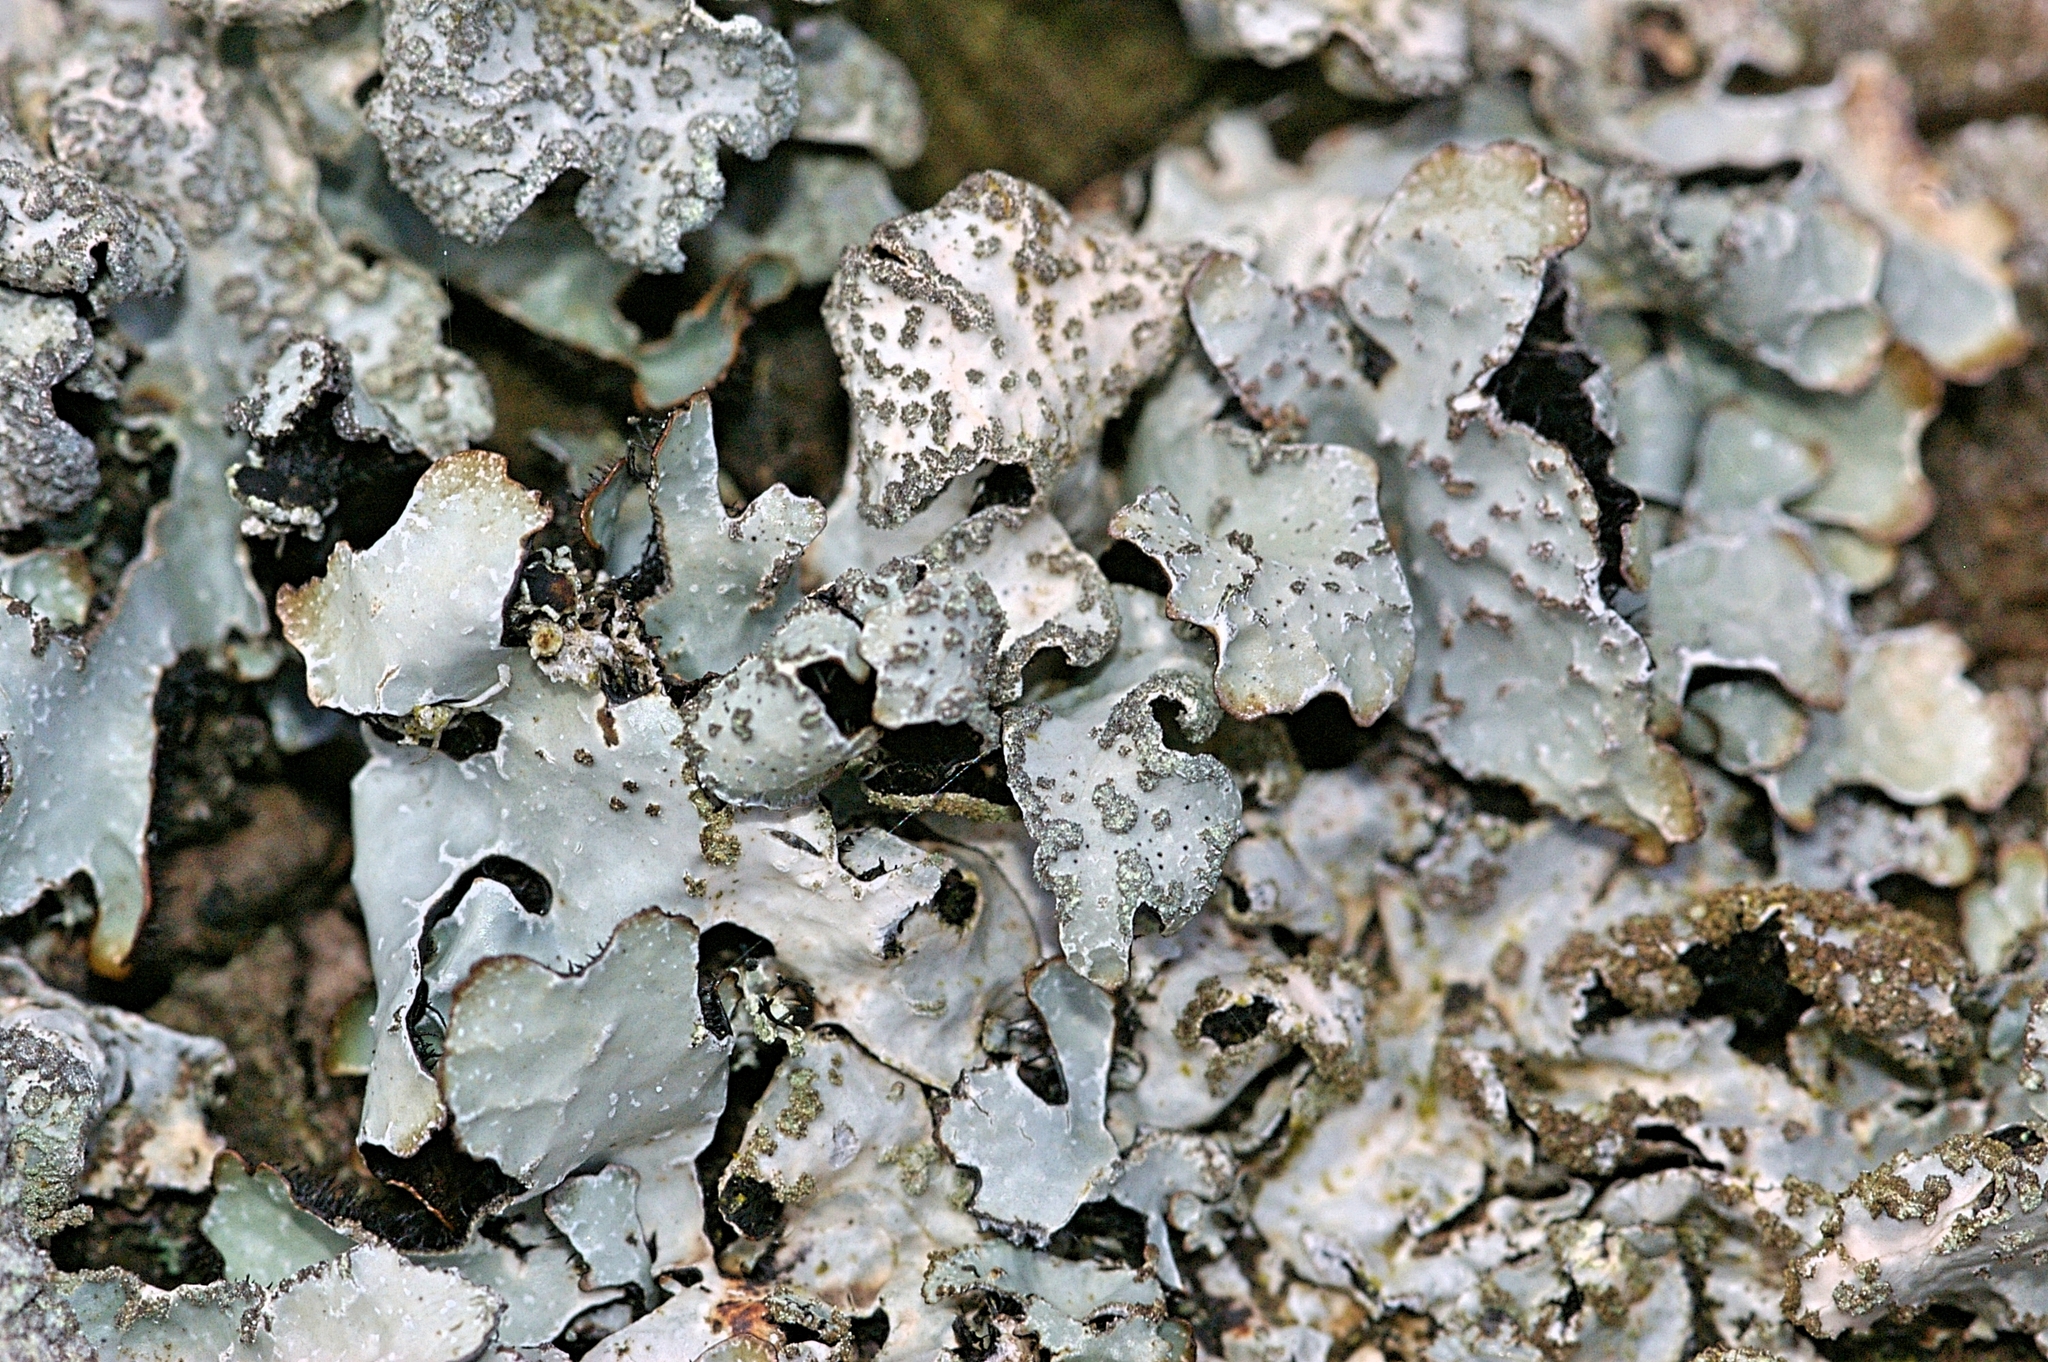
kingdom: Fungi
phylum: Ascomycota
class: Lecanoromycetes
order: Lecanorales
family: Parmeliaceae
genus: Parmelia
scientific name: Parmelia sulcata
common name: Netted shield lichen
